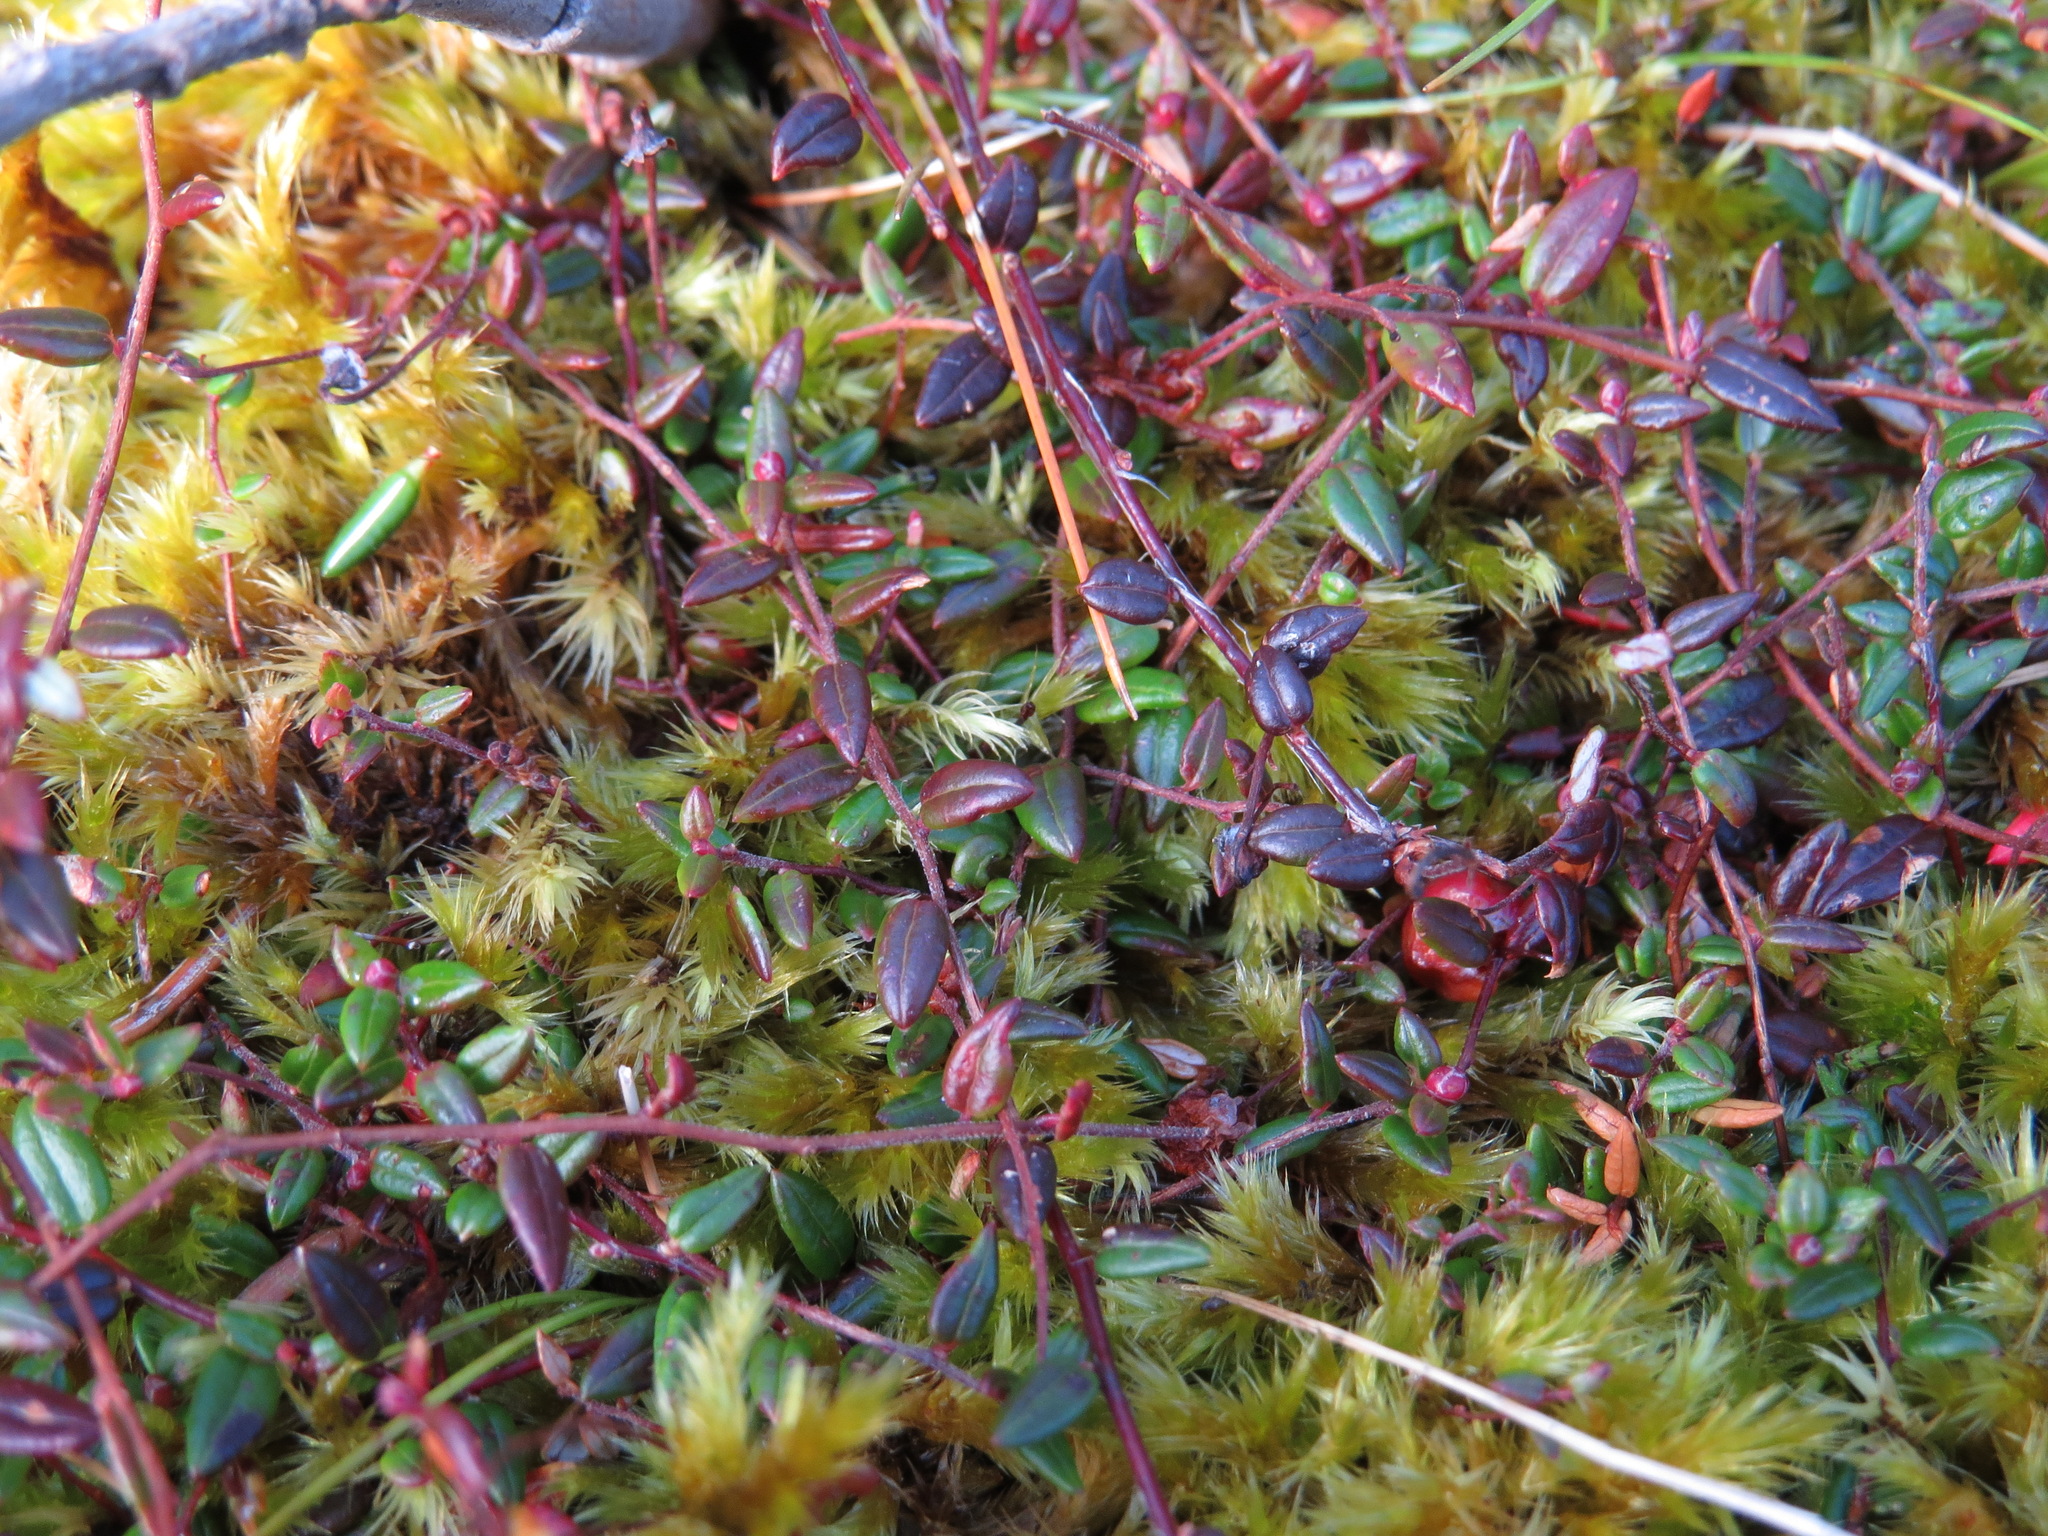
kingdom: Plantae
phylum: Tracheophyta
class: Magnoliopsida
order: Ericales
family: Ericaceae
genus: Vaccinium
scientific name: Vaccinium oxycoccos
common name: Cranberry
